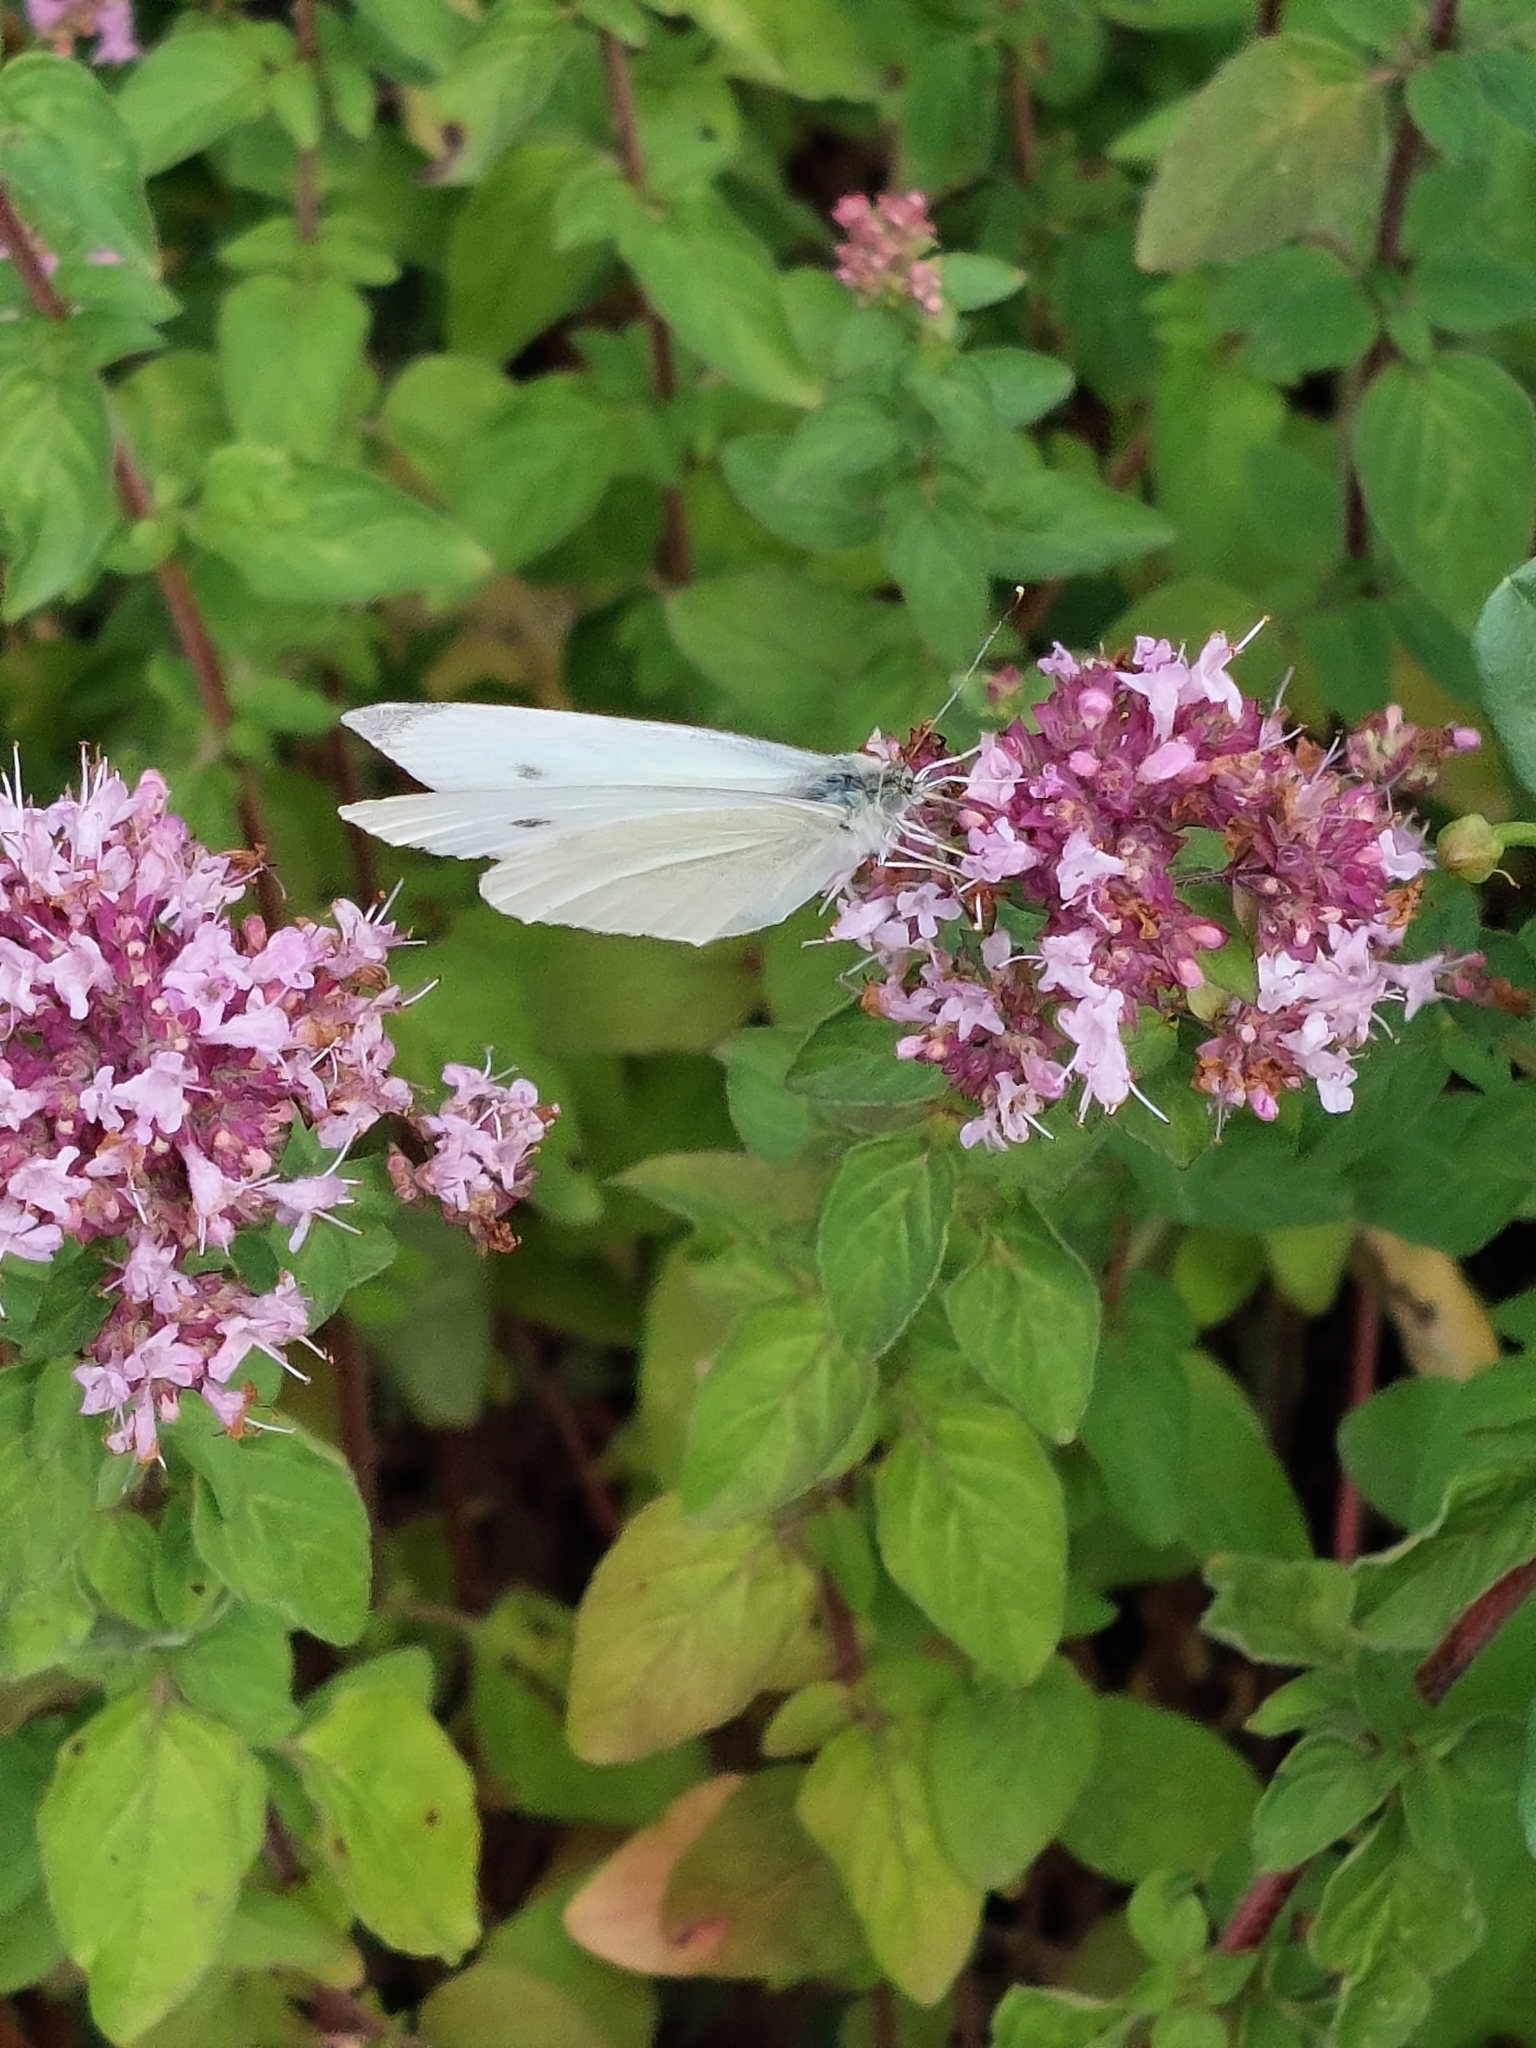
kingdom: Animalia
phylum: Arthropoda
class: Insecta
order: Lepidoptera
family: Pieridae
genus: Pieris
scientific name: Pieris rapae
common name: Small white
